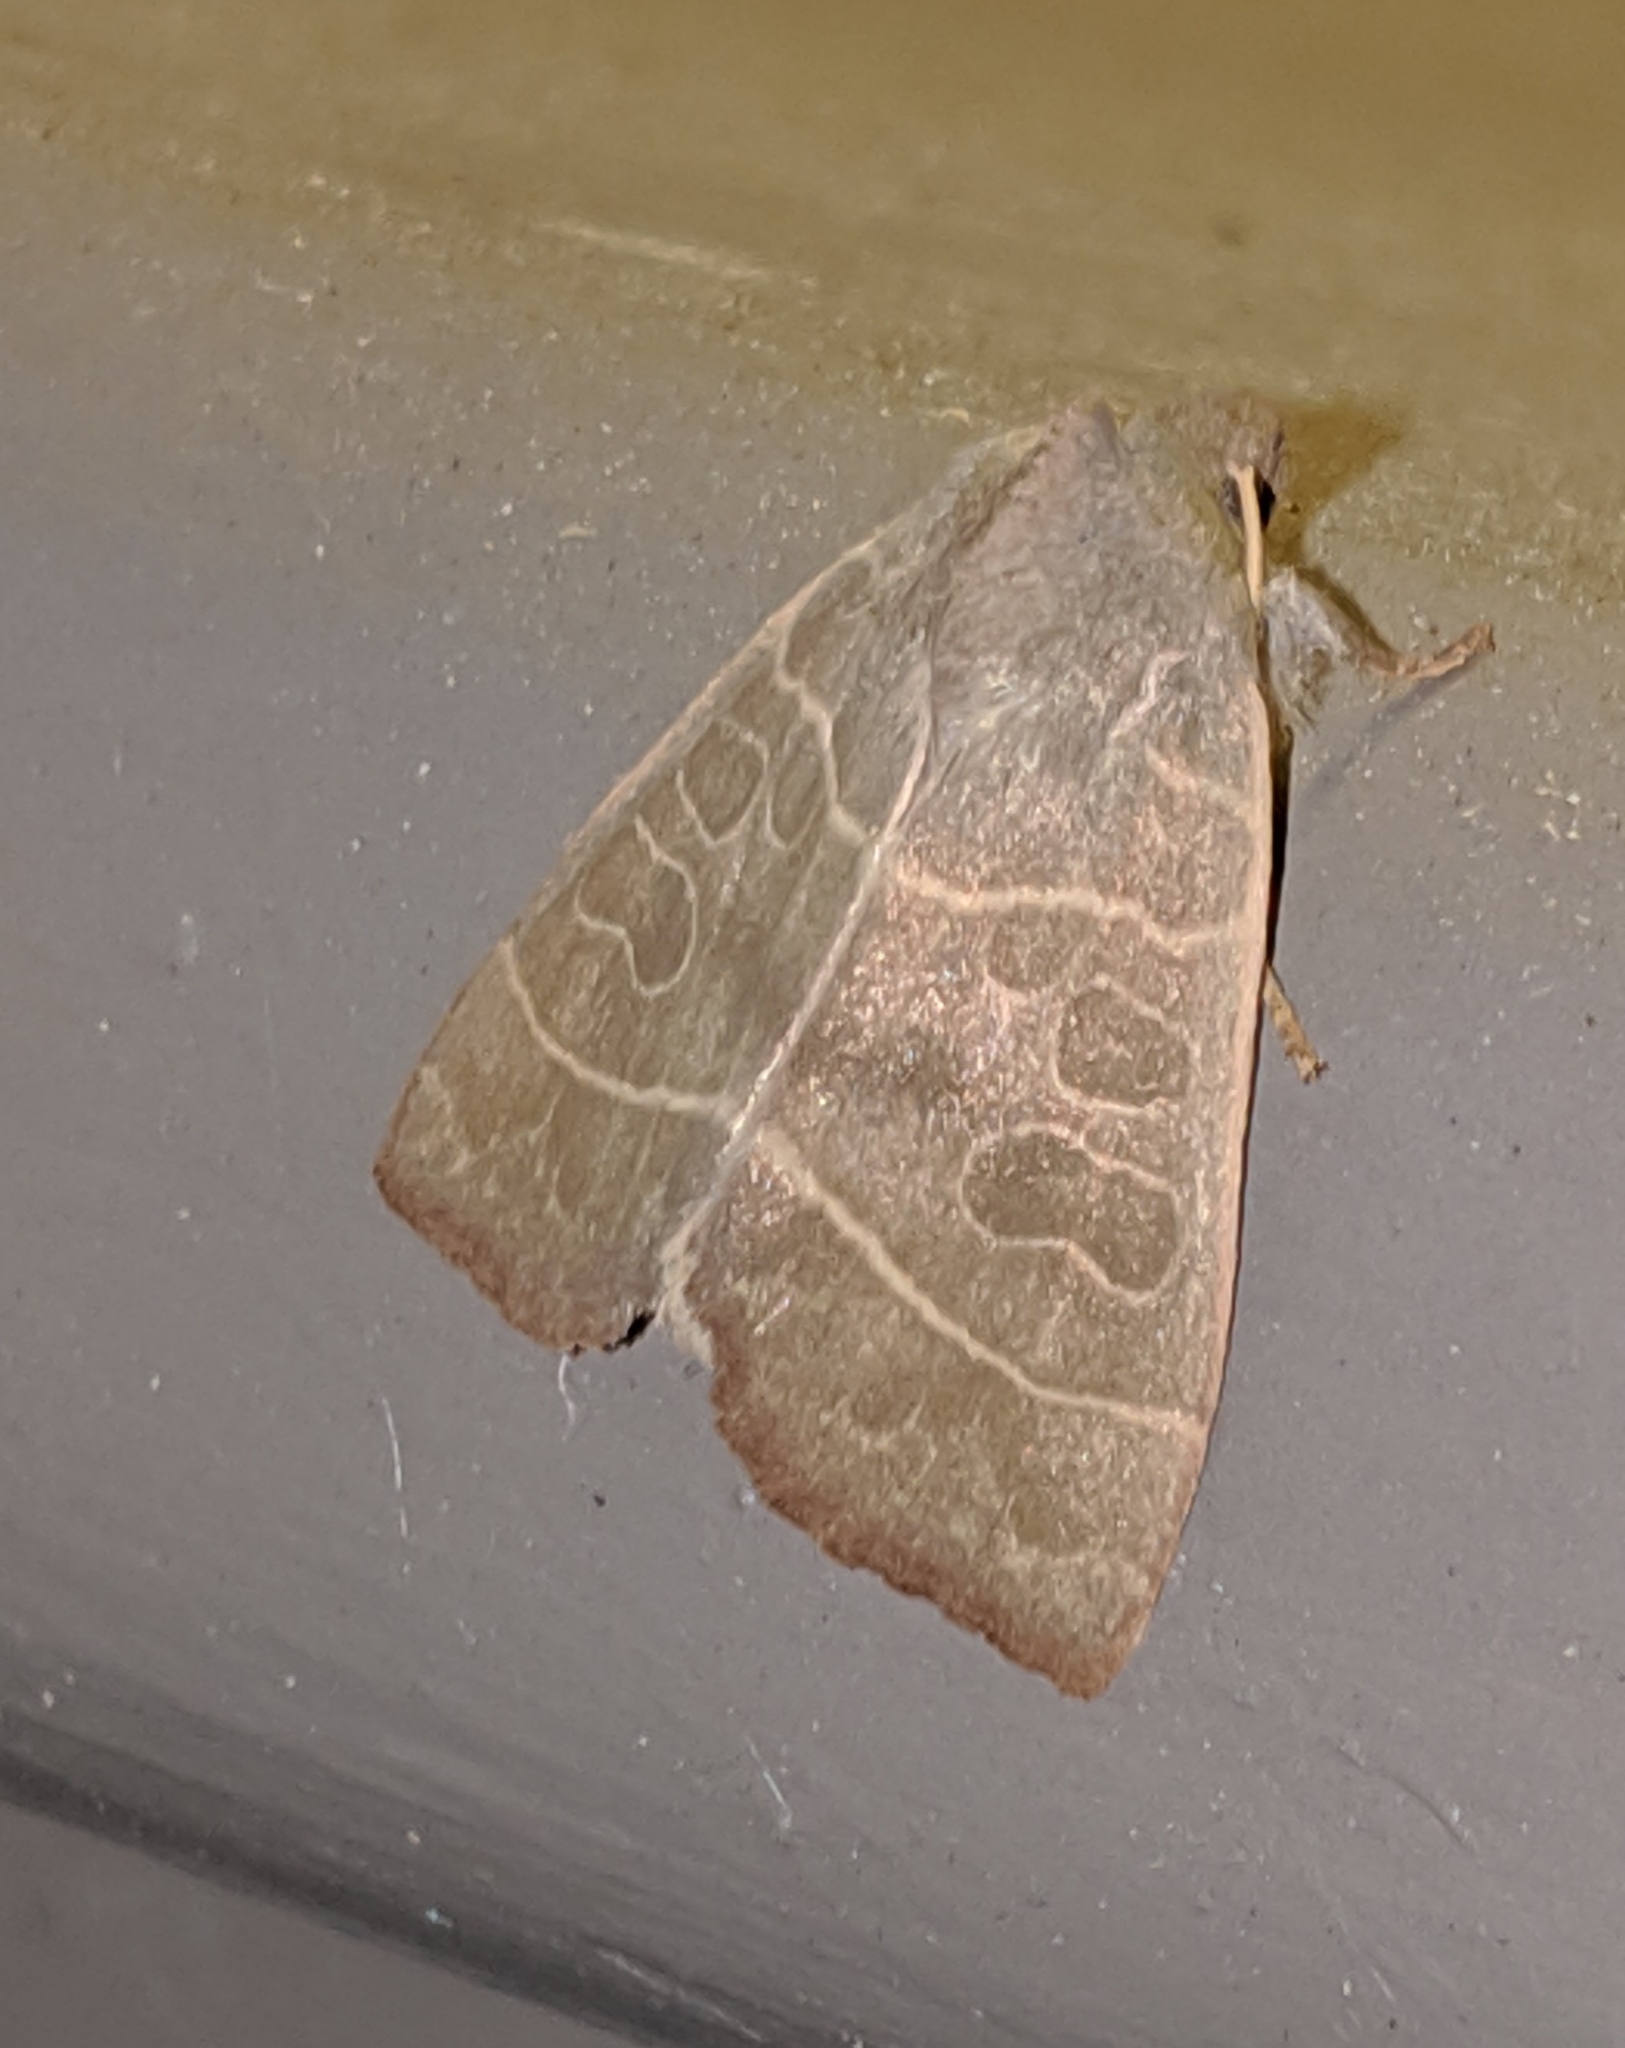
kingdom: Animalia
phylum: Arthropoda
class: Insecta
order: Lepidoptera
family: Noctuidae
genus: Ipimorpha
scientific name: Ipimorpha pleonectusa
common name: Even-lined sallow
